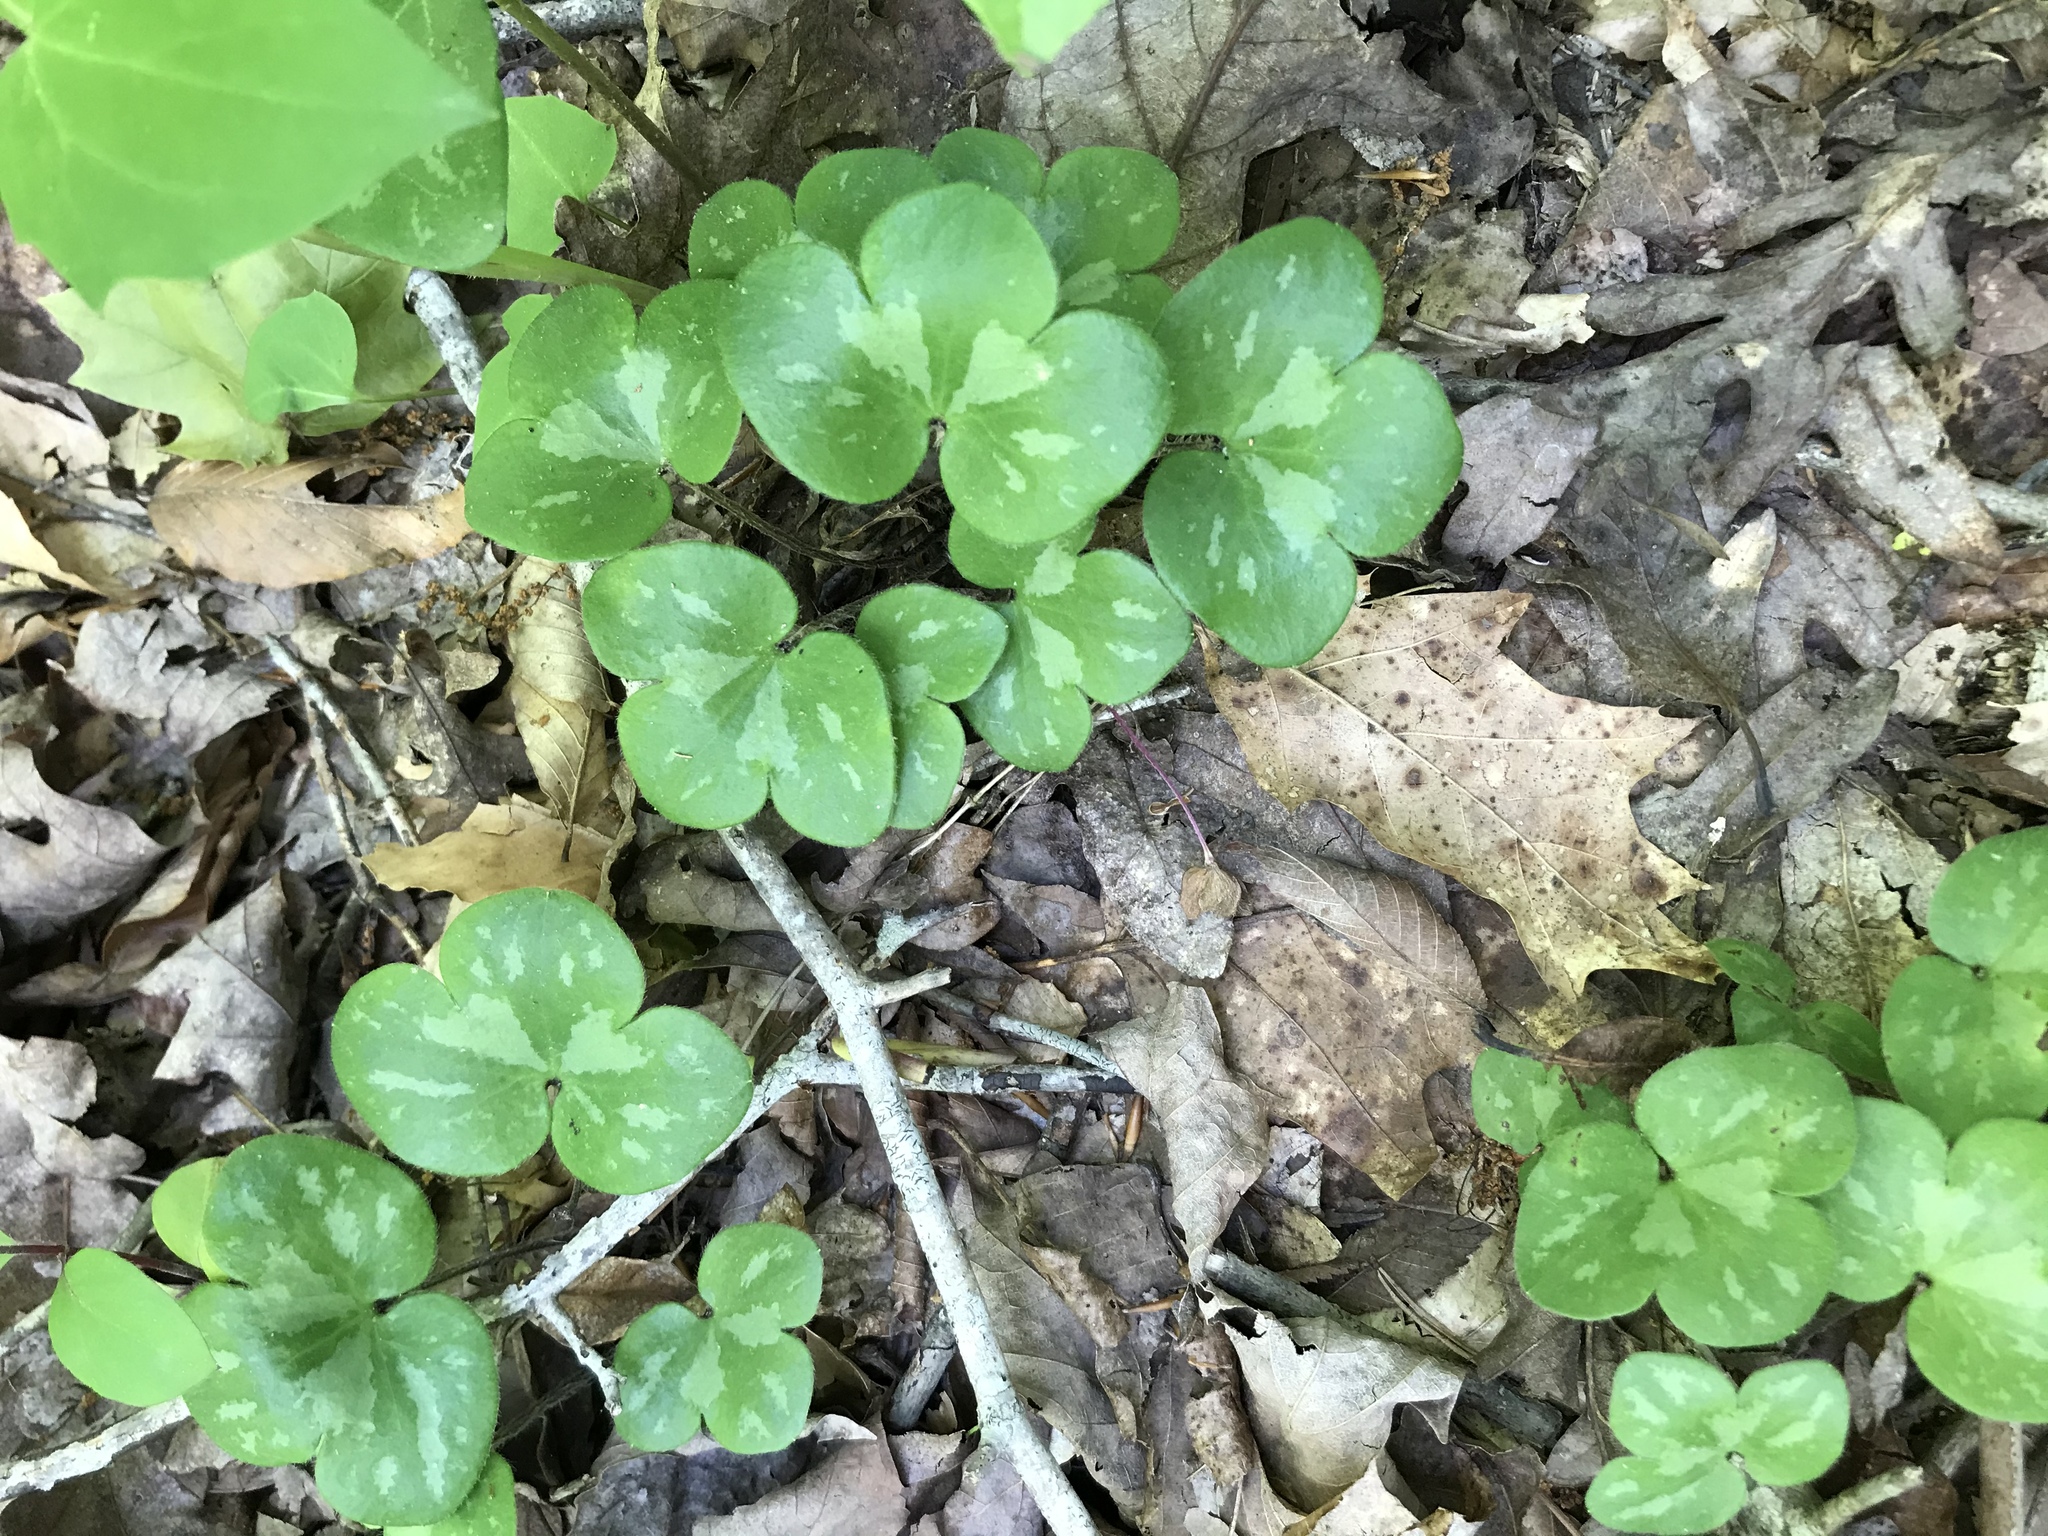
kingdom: Plantae
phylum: Tracheophyta
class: Magnoliopsida
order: Ranunculales
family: Ranunculaceae
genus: Hepatica
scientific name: Hepatica americana
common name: American hepatica
